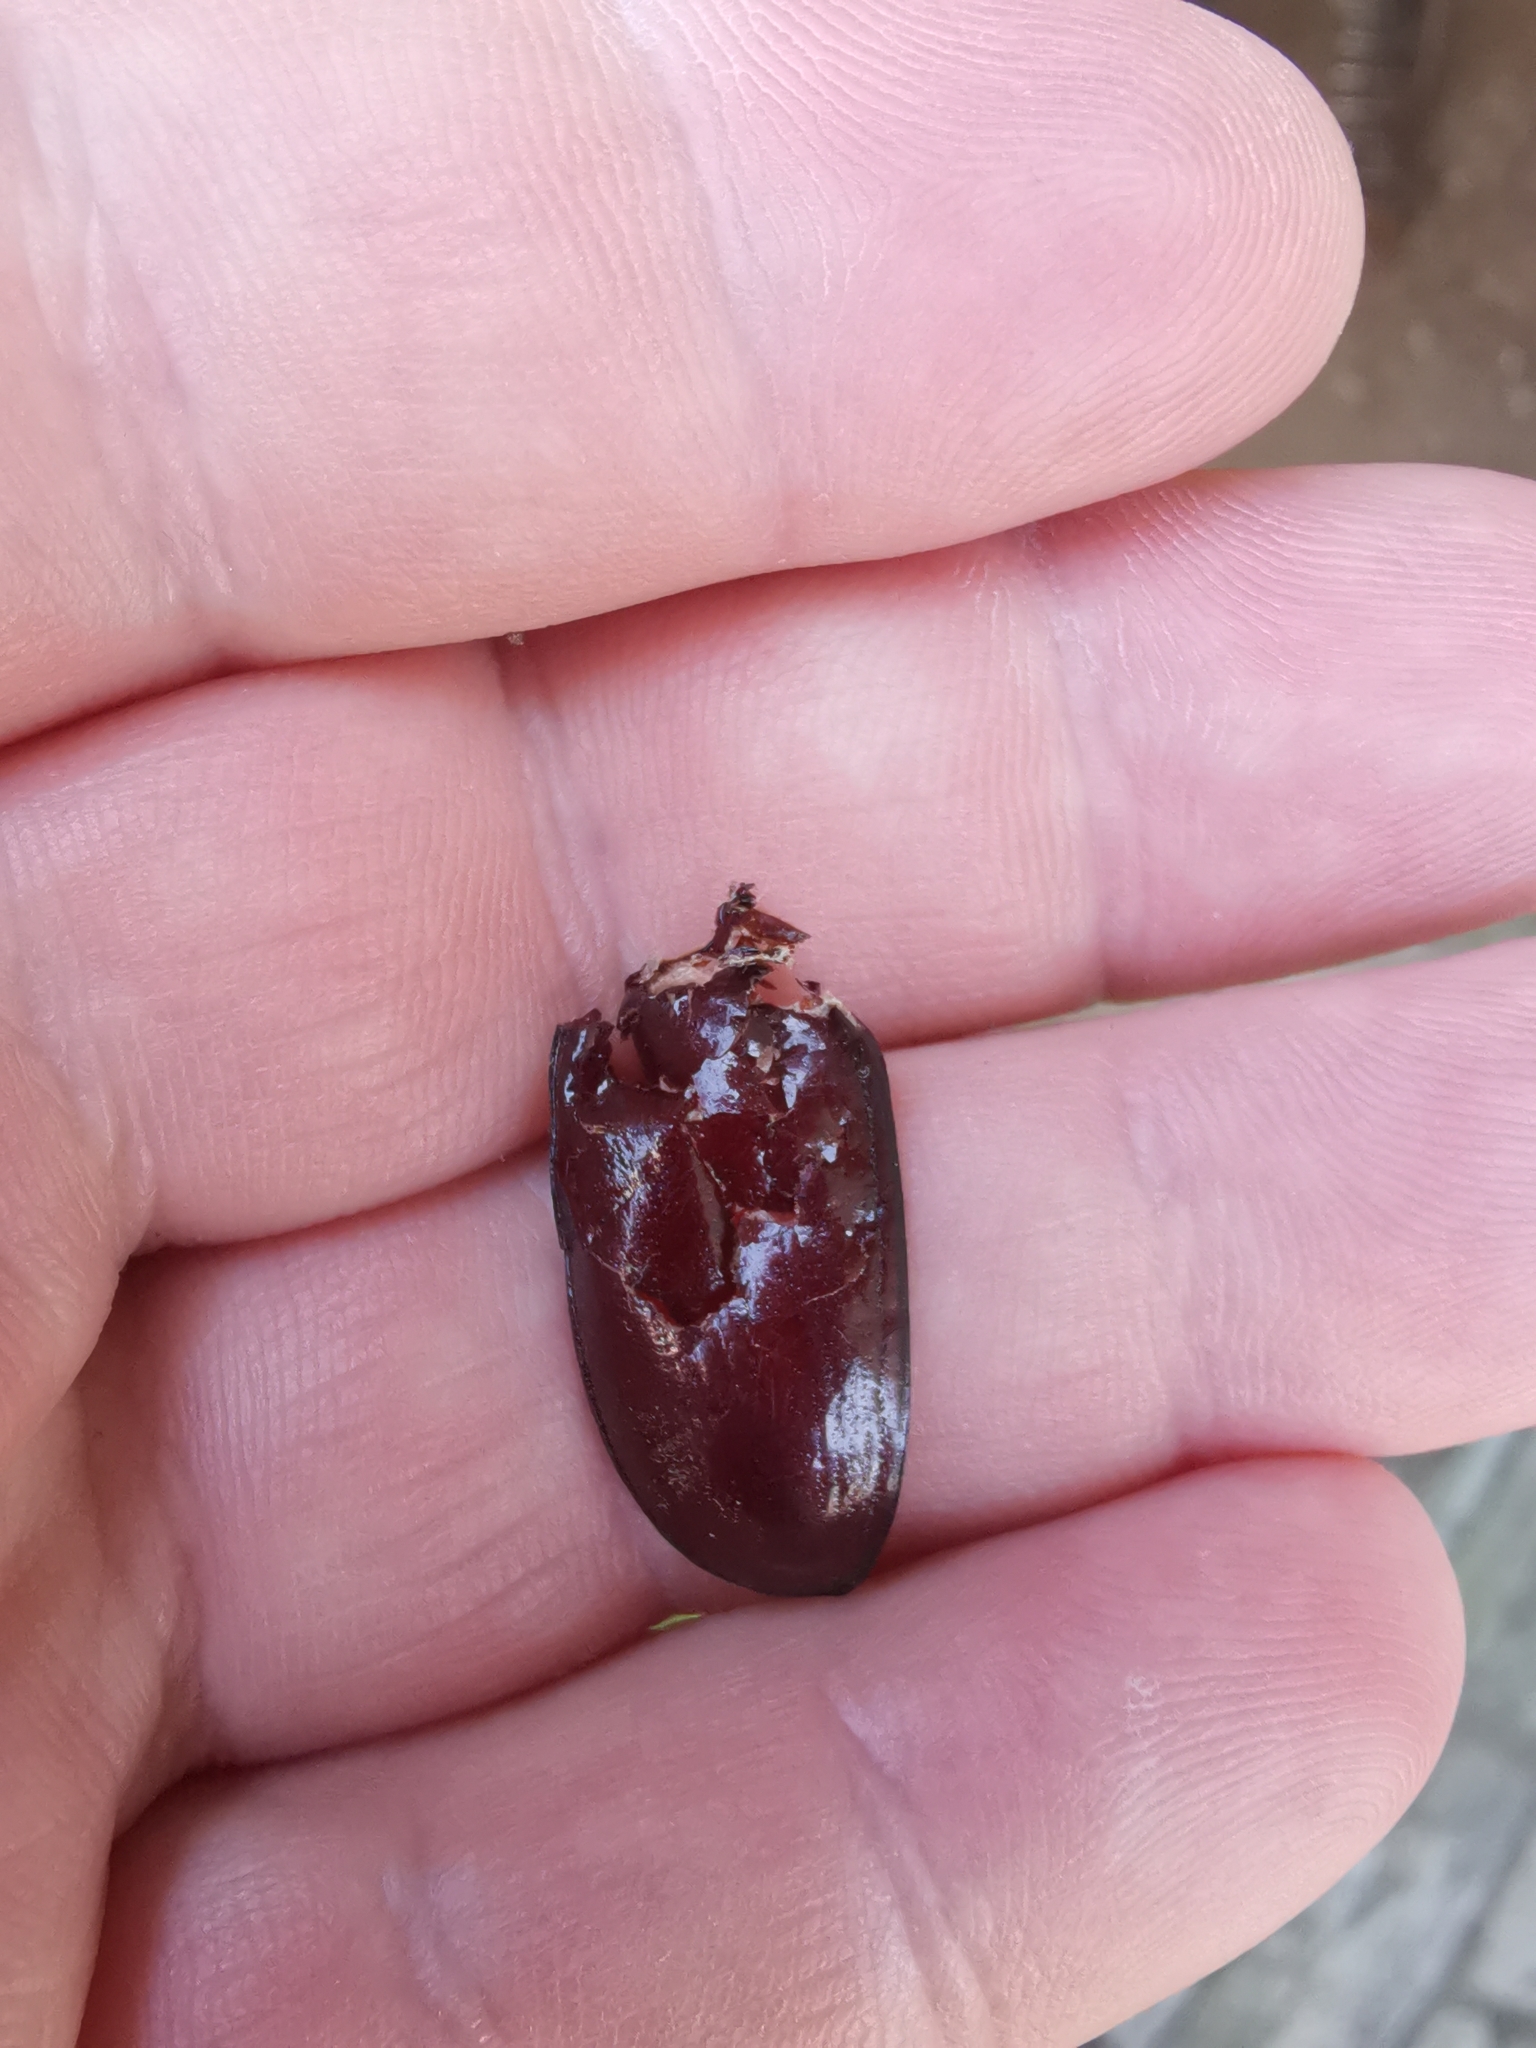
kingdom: Animalia
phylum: Arthropoda
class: Insecta
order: Coleoptera
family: Scarabaeidae
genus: Oryctes
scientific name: Oryctes nasicornis
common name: European rhinoceros beetle
